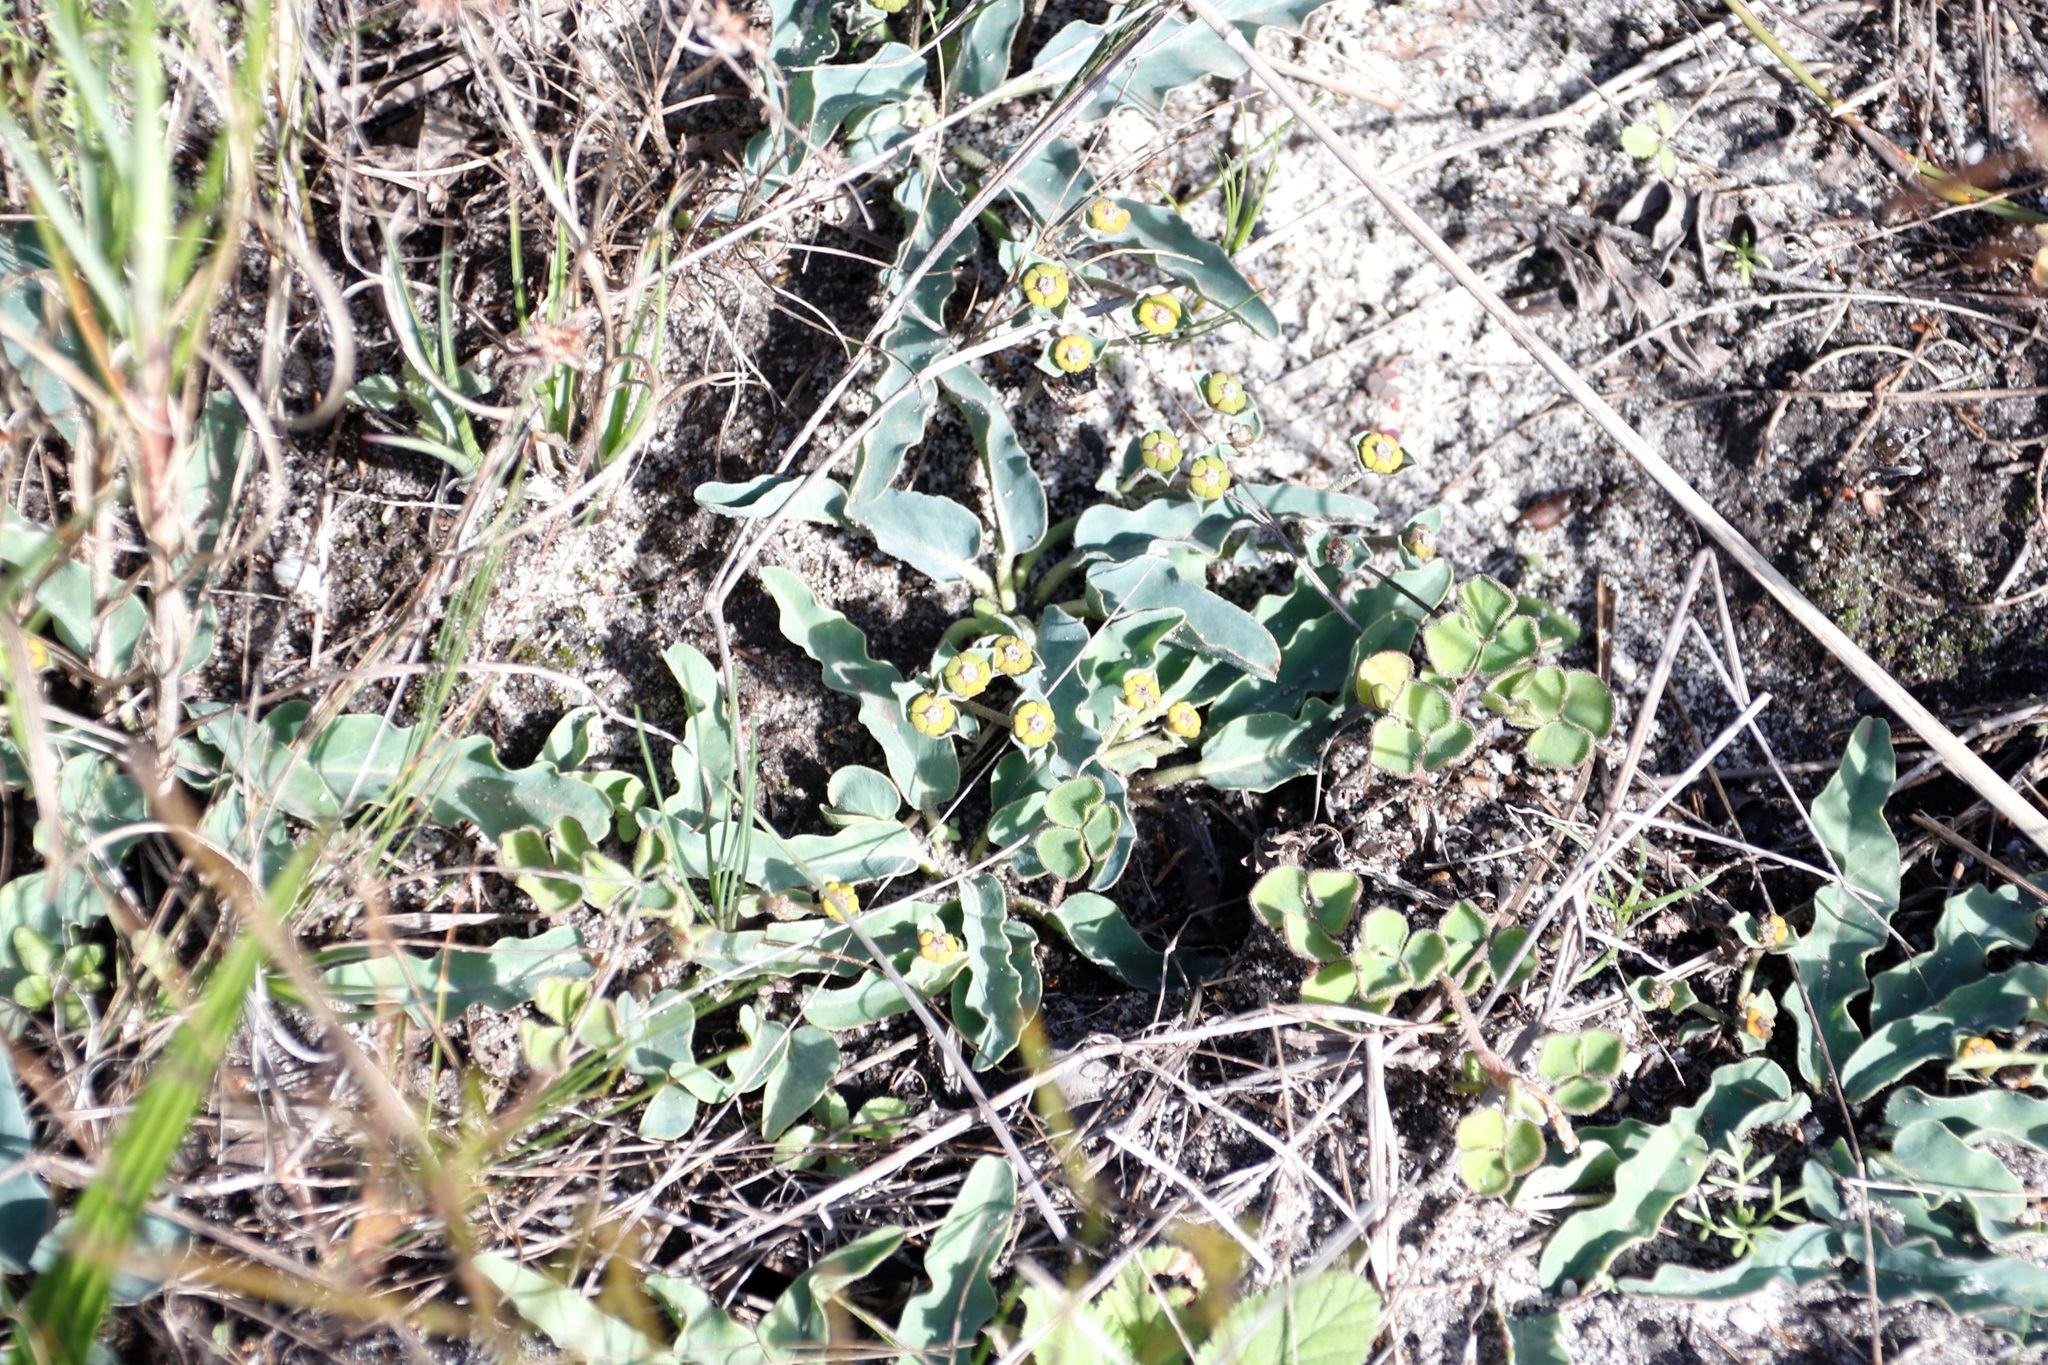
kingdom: Plantae
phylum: Tracheophyta
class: Magnoliopsida
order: Malpighiales
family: Euphorbiaceae
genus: Euphorbia
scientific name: Euphorbia tuberosa
